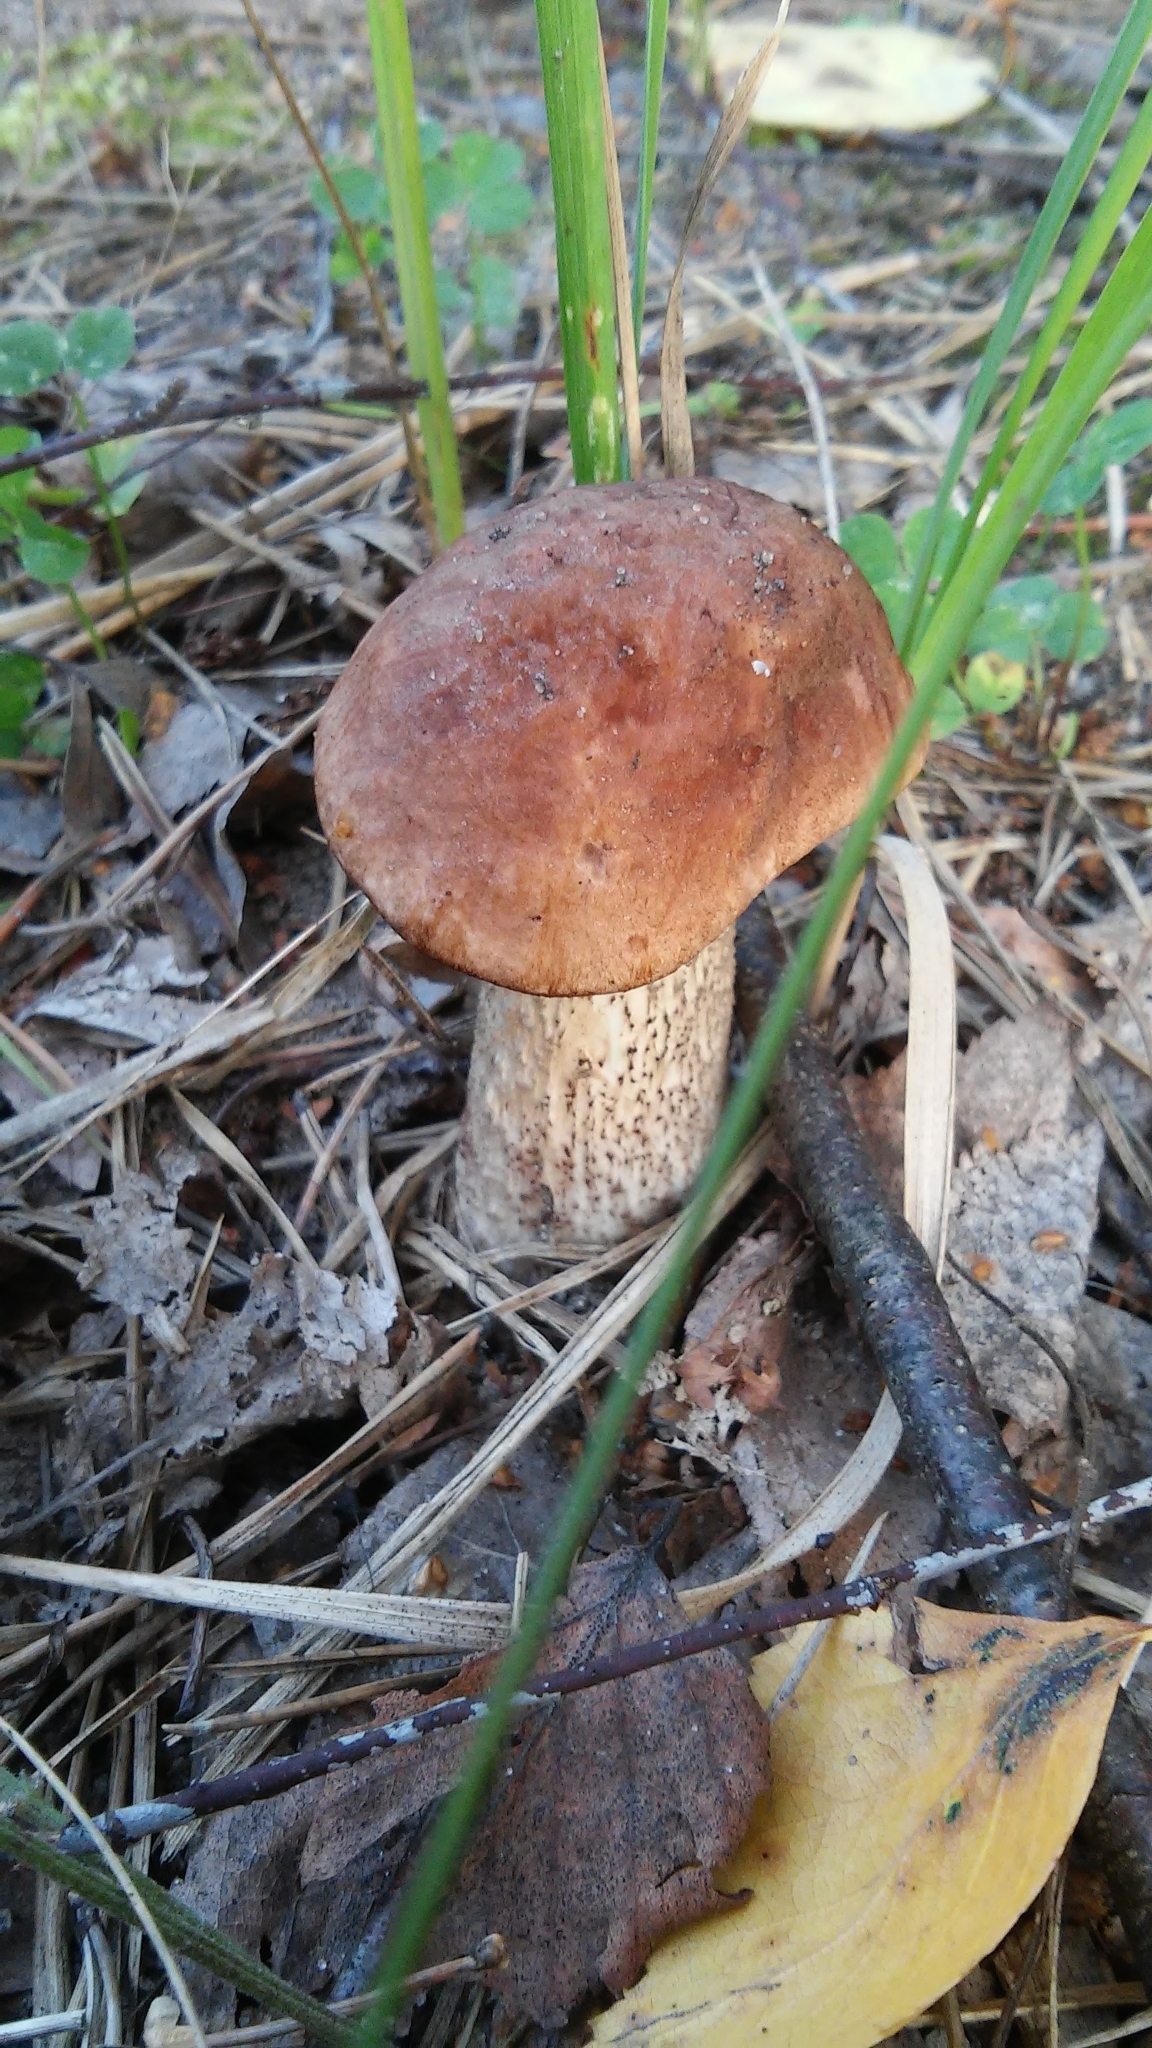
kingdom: Fungi
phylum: Basidiomycota
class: Agaricomycetes
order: Boletales
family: Boletaceae
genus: Leccinum
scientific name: Leccinum scabrum
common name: Blushing bolete
